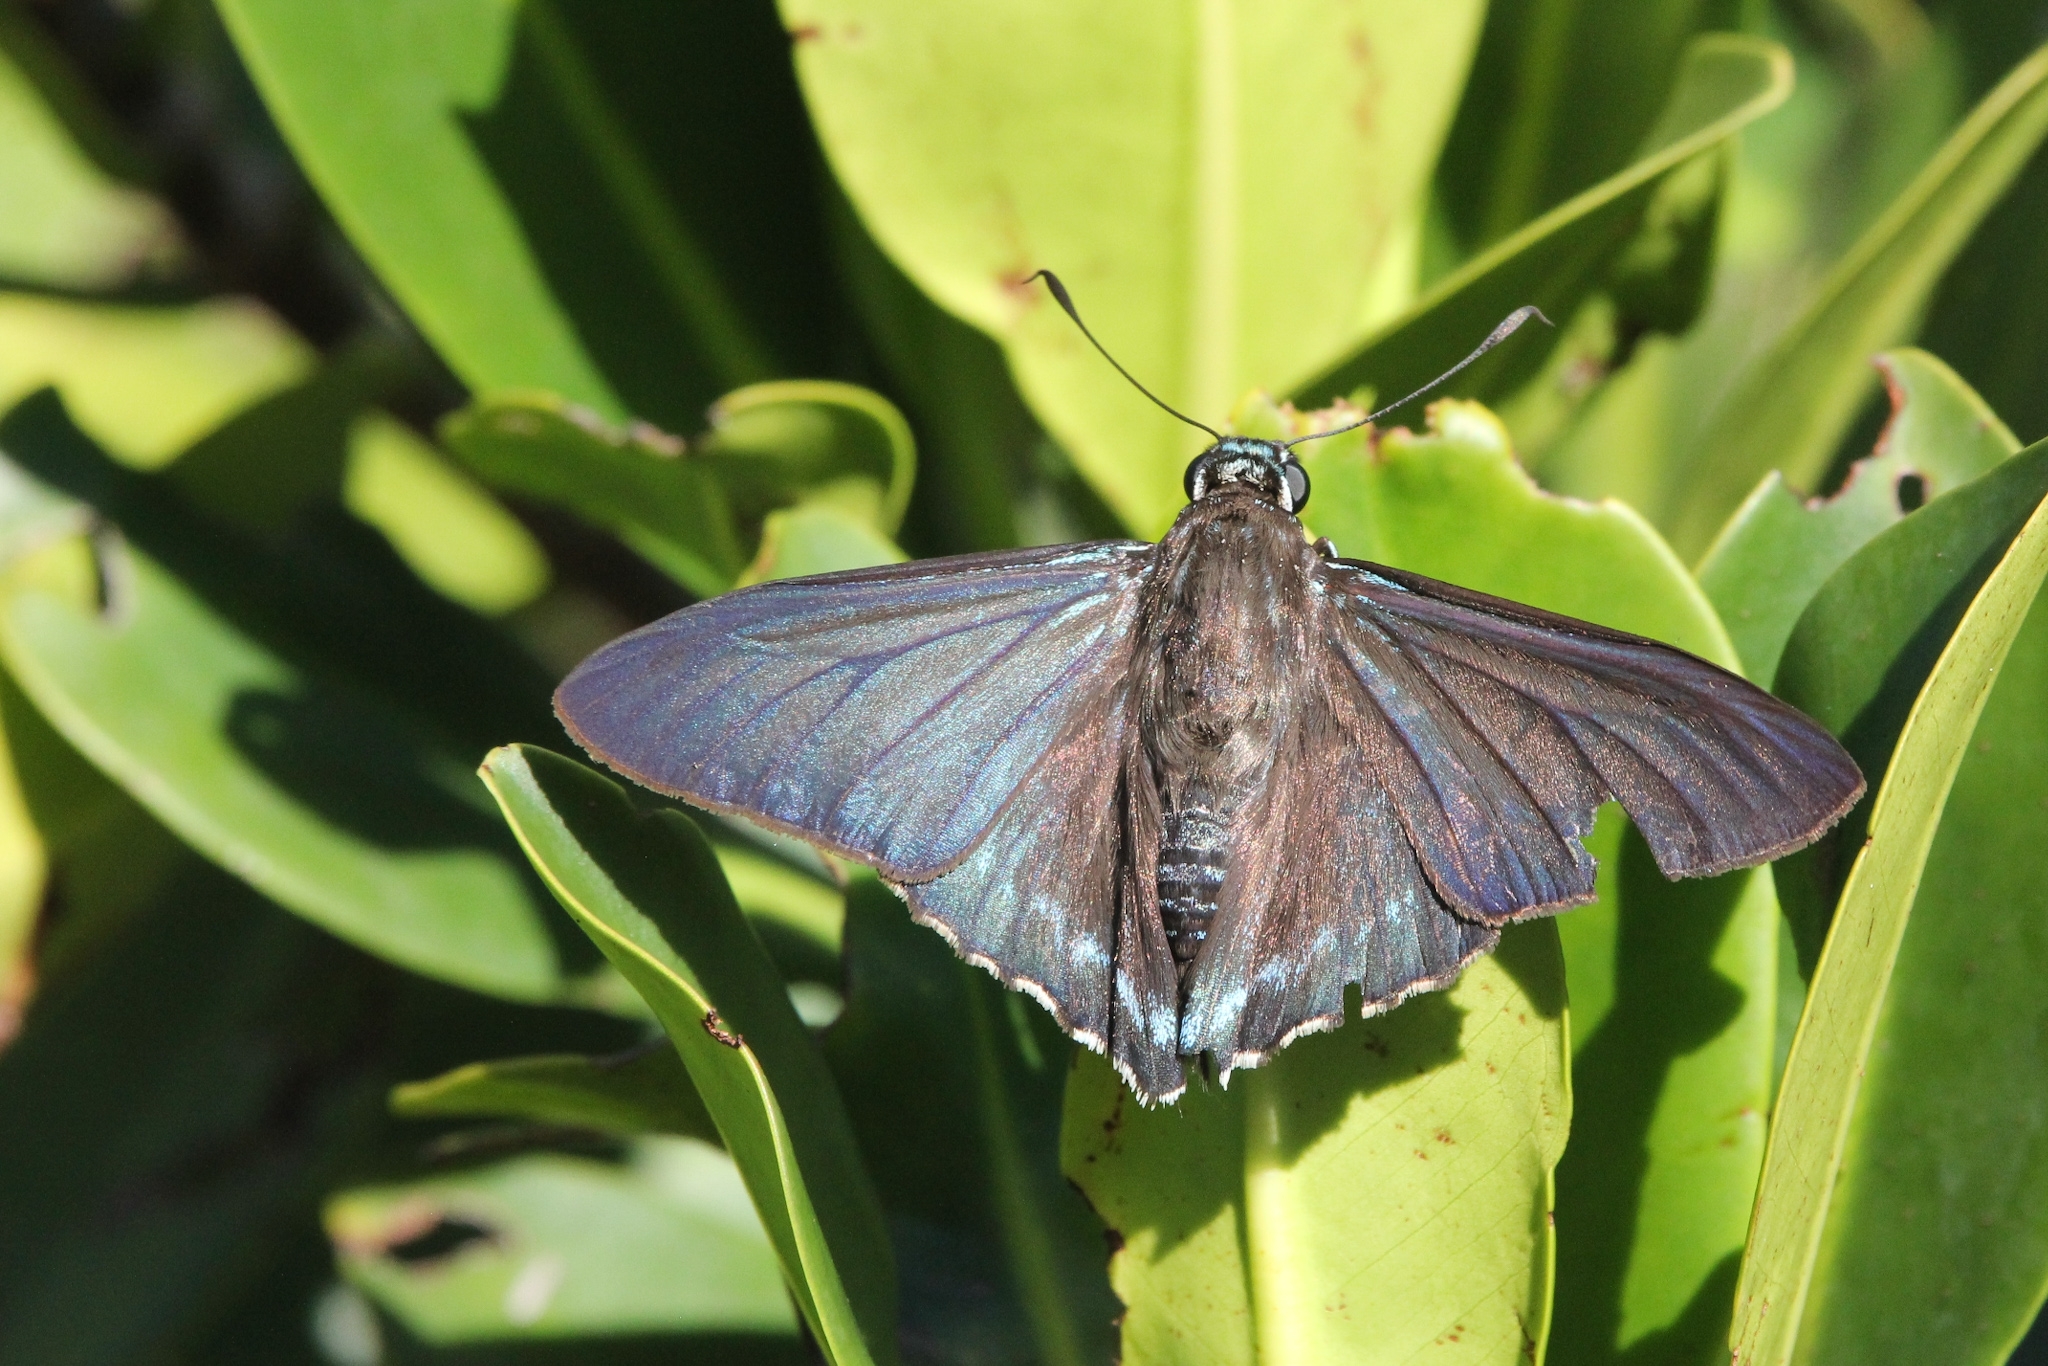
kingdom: Animalia
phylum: Arthropoda
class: Insecta
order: Lepidoptera
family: Hesperiidae
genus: Phocides
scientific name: Phocides pigmalion
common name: Mangrove skipper
